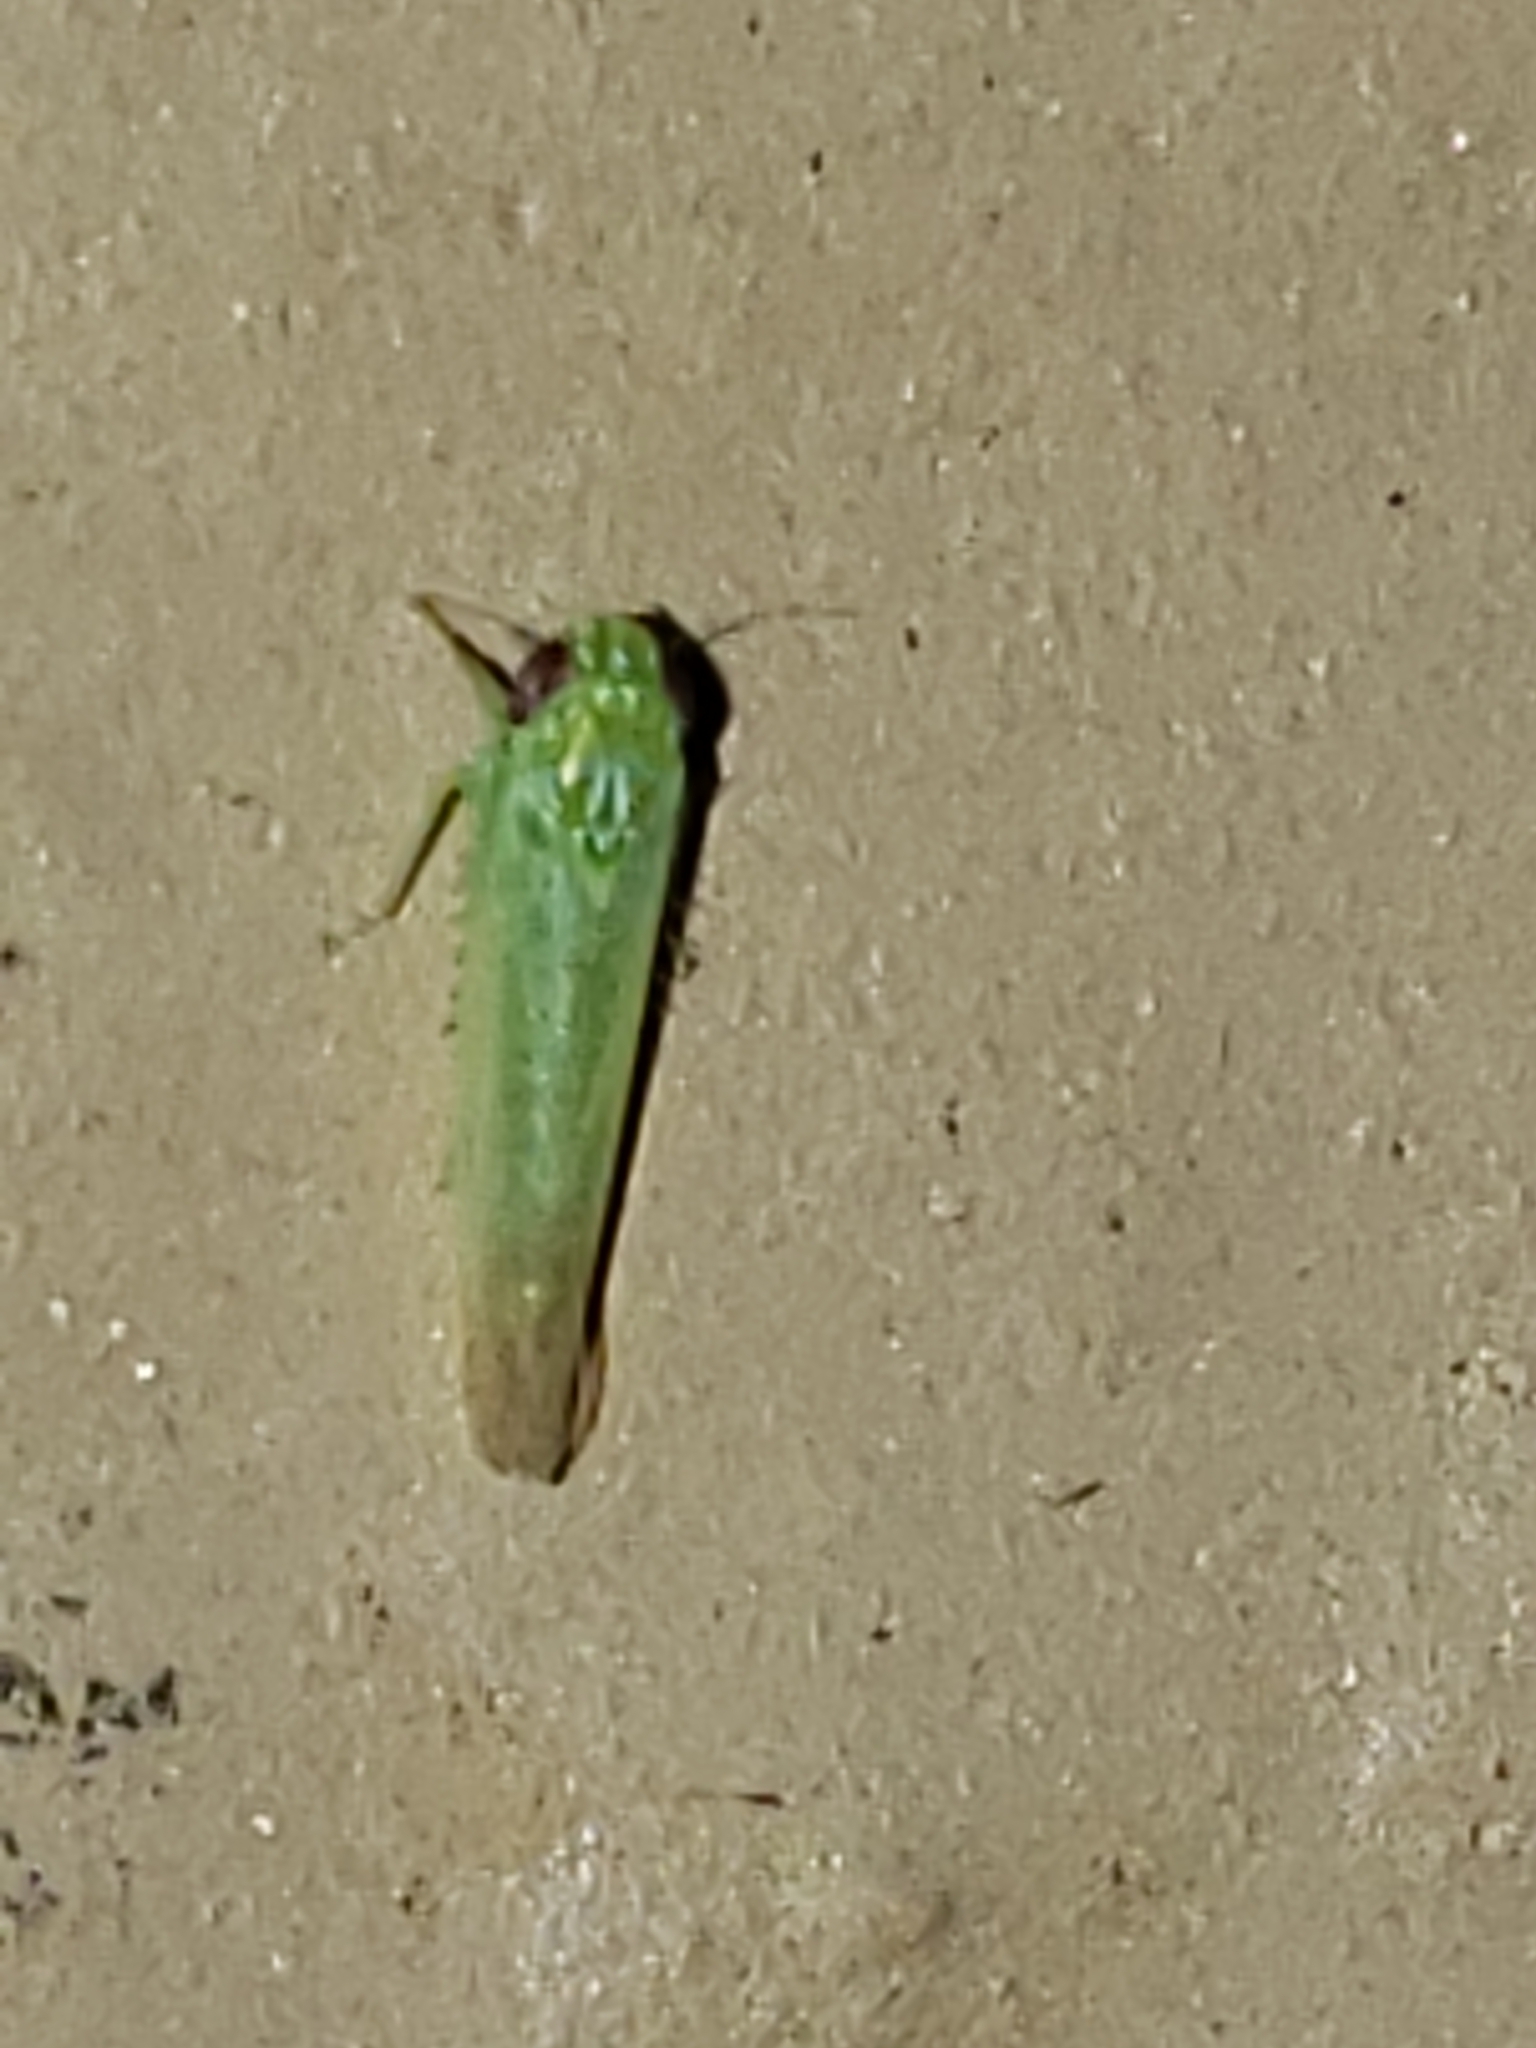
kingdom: Animalia
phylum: Arthropoda
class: Insecta
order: Hemiptera
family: Cicadellidae
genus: Empoasca
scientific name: Empoasca fabae
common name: Potato leafhopper
